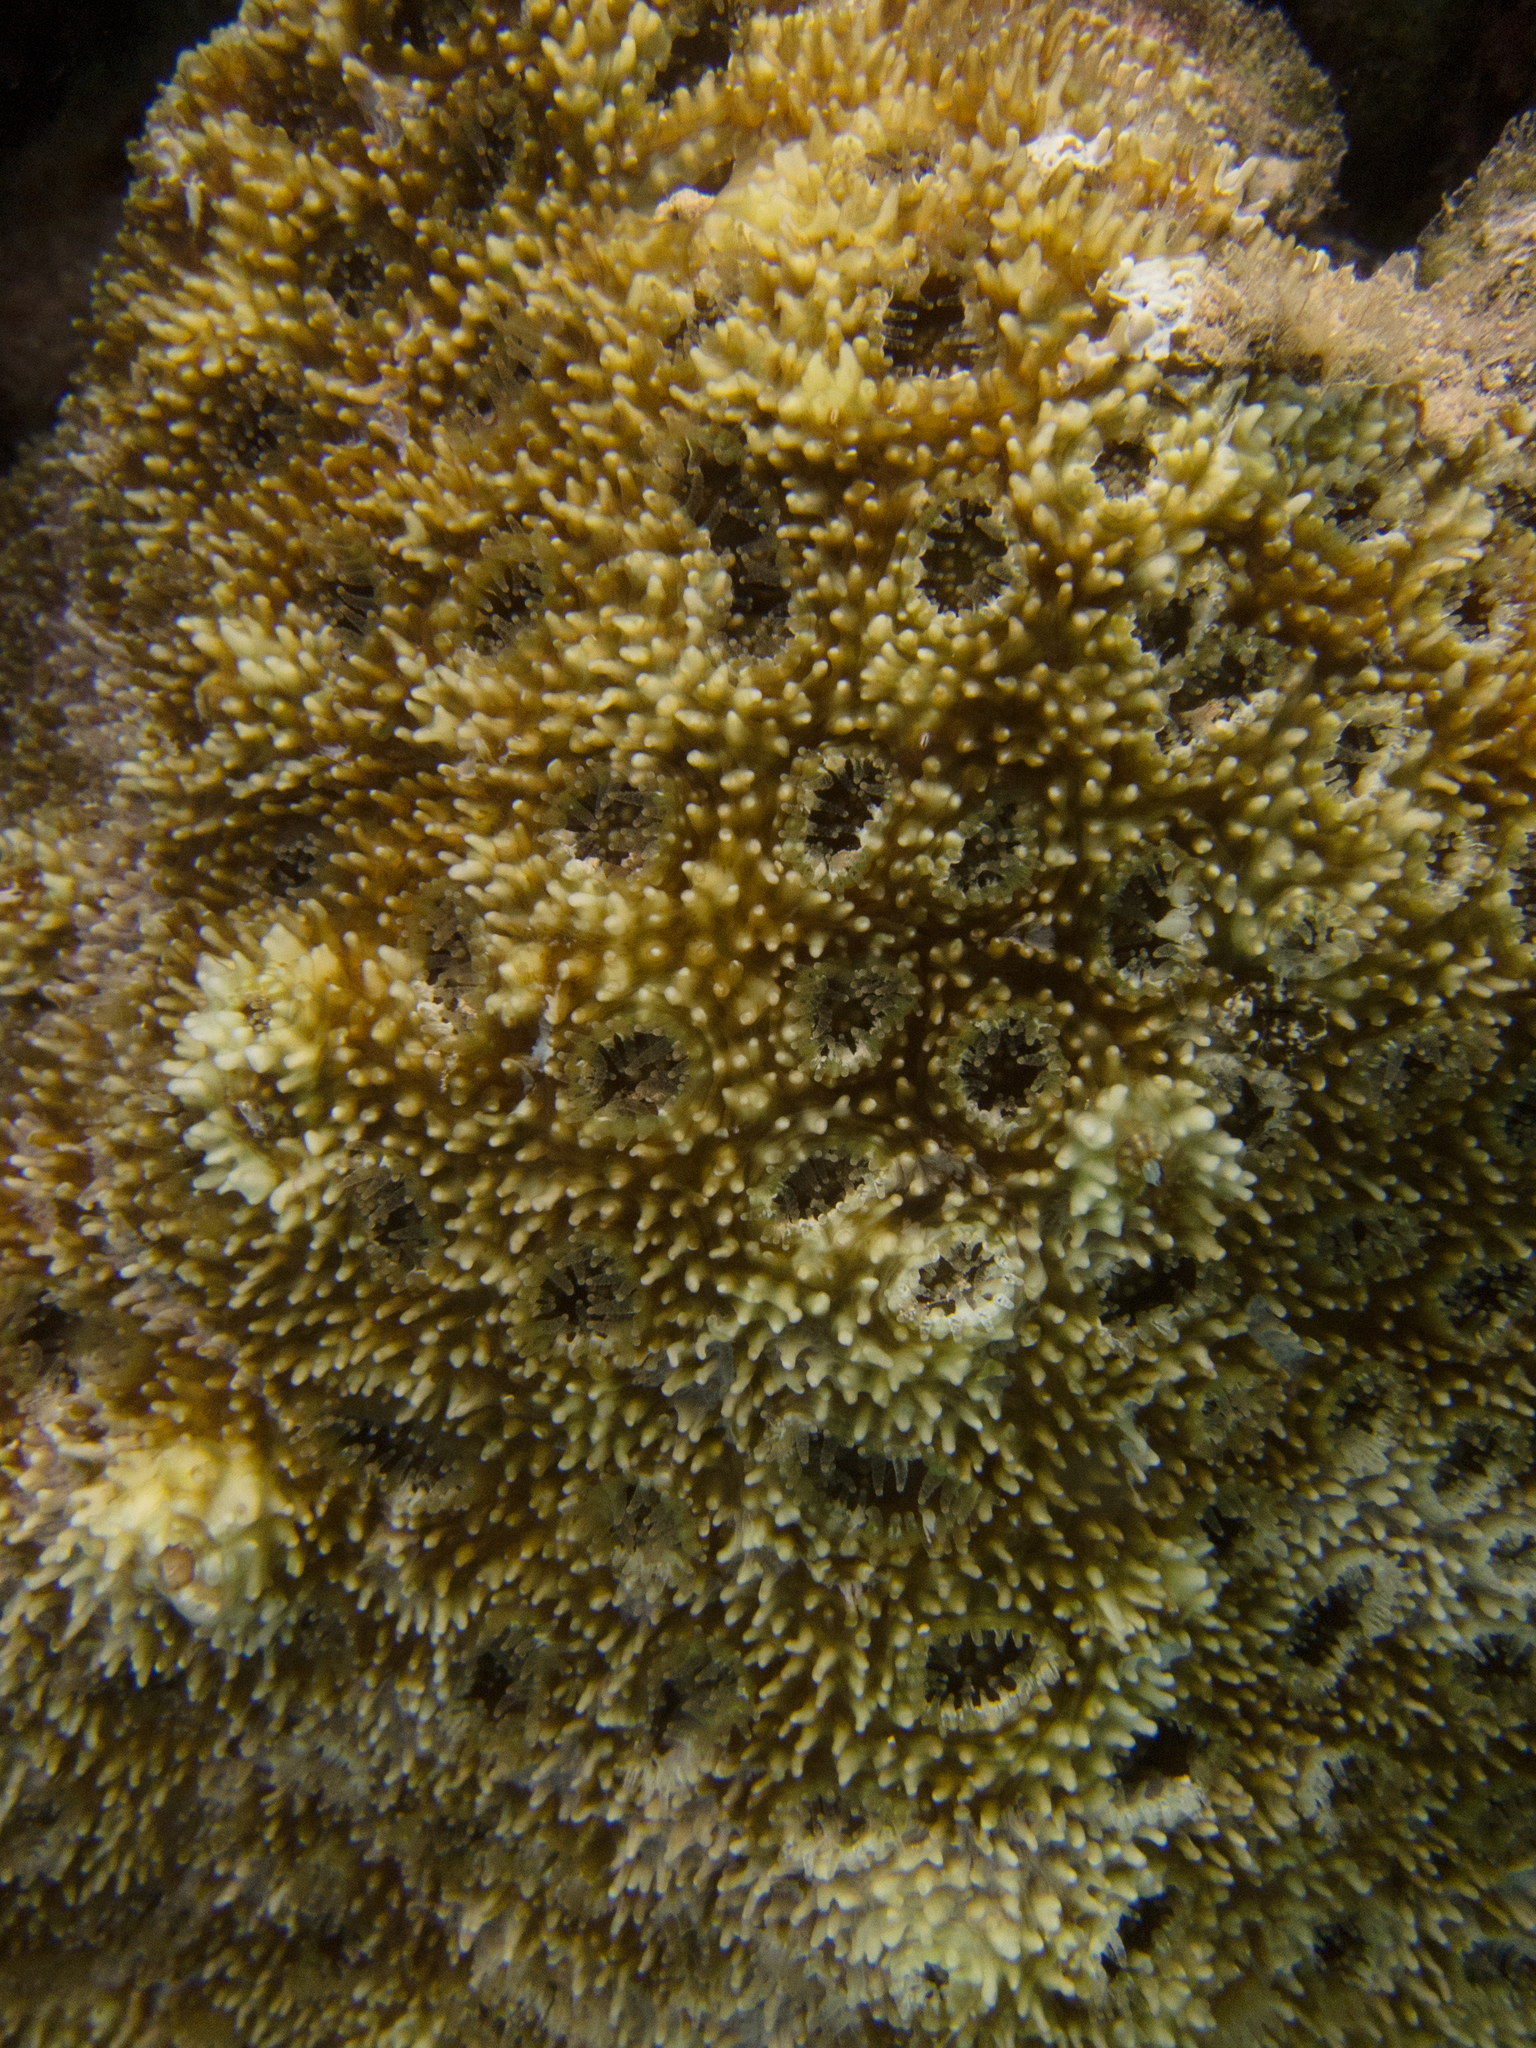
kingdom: Animalia
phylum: Cnidaria
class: Anthozoa
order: Scleractinia
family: Lobophylliidae
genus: Acanthastrea
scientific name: Acanthastrea echinata
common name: Starry cup coral
